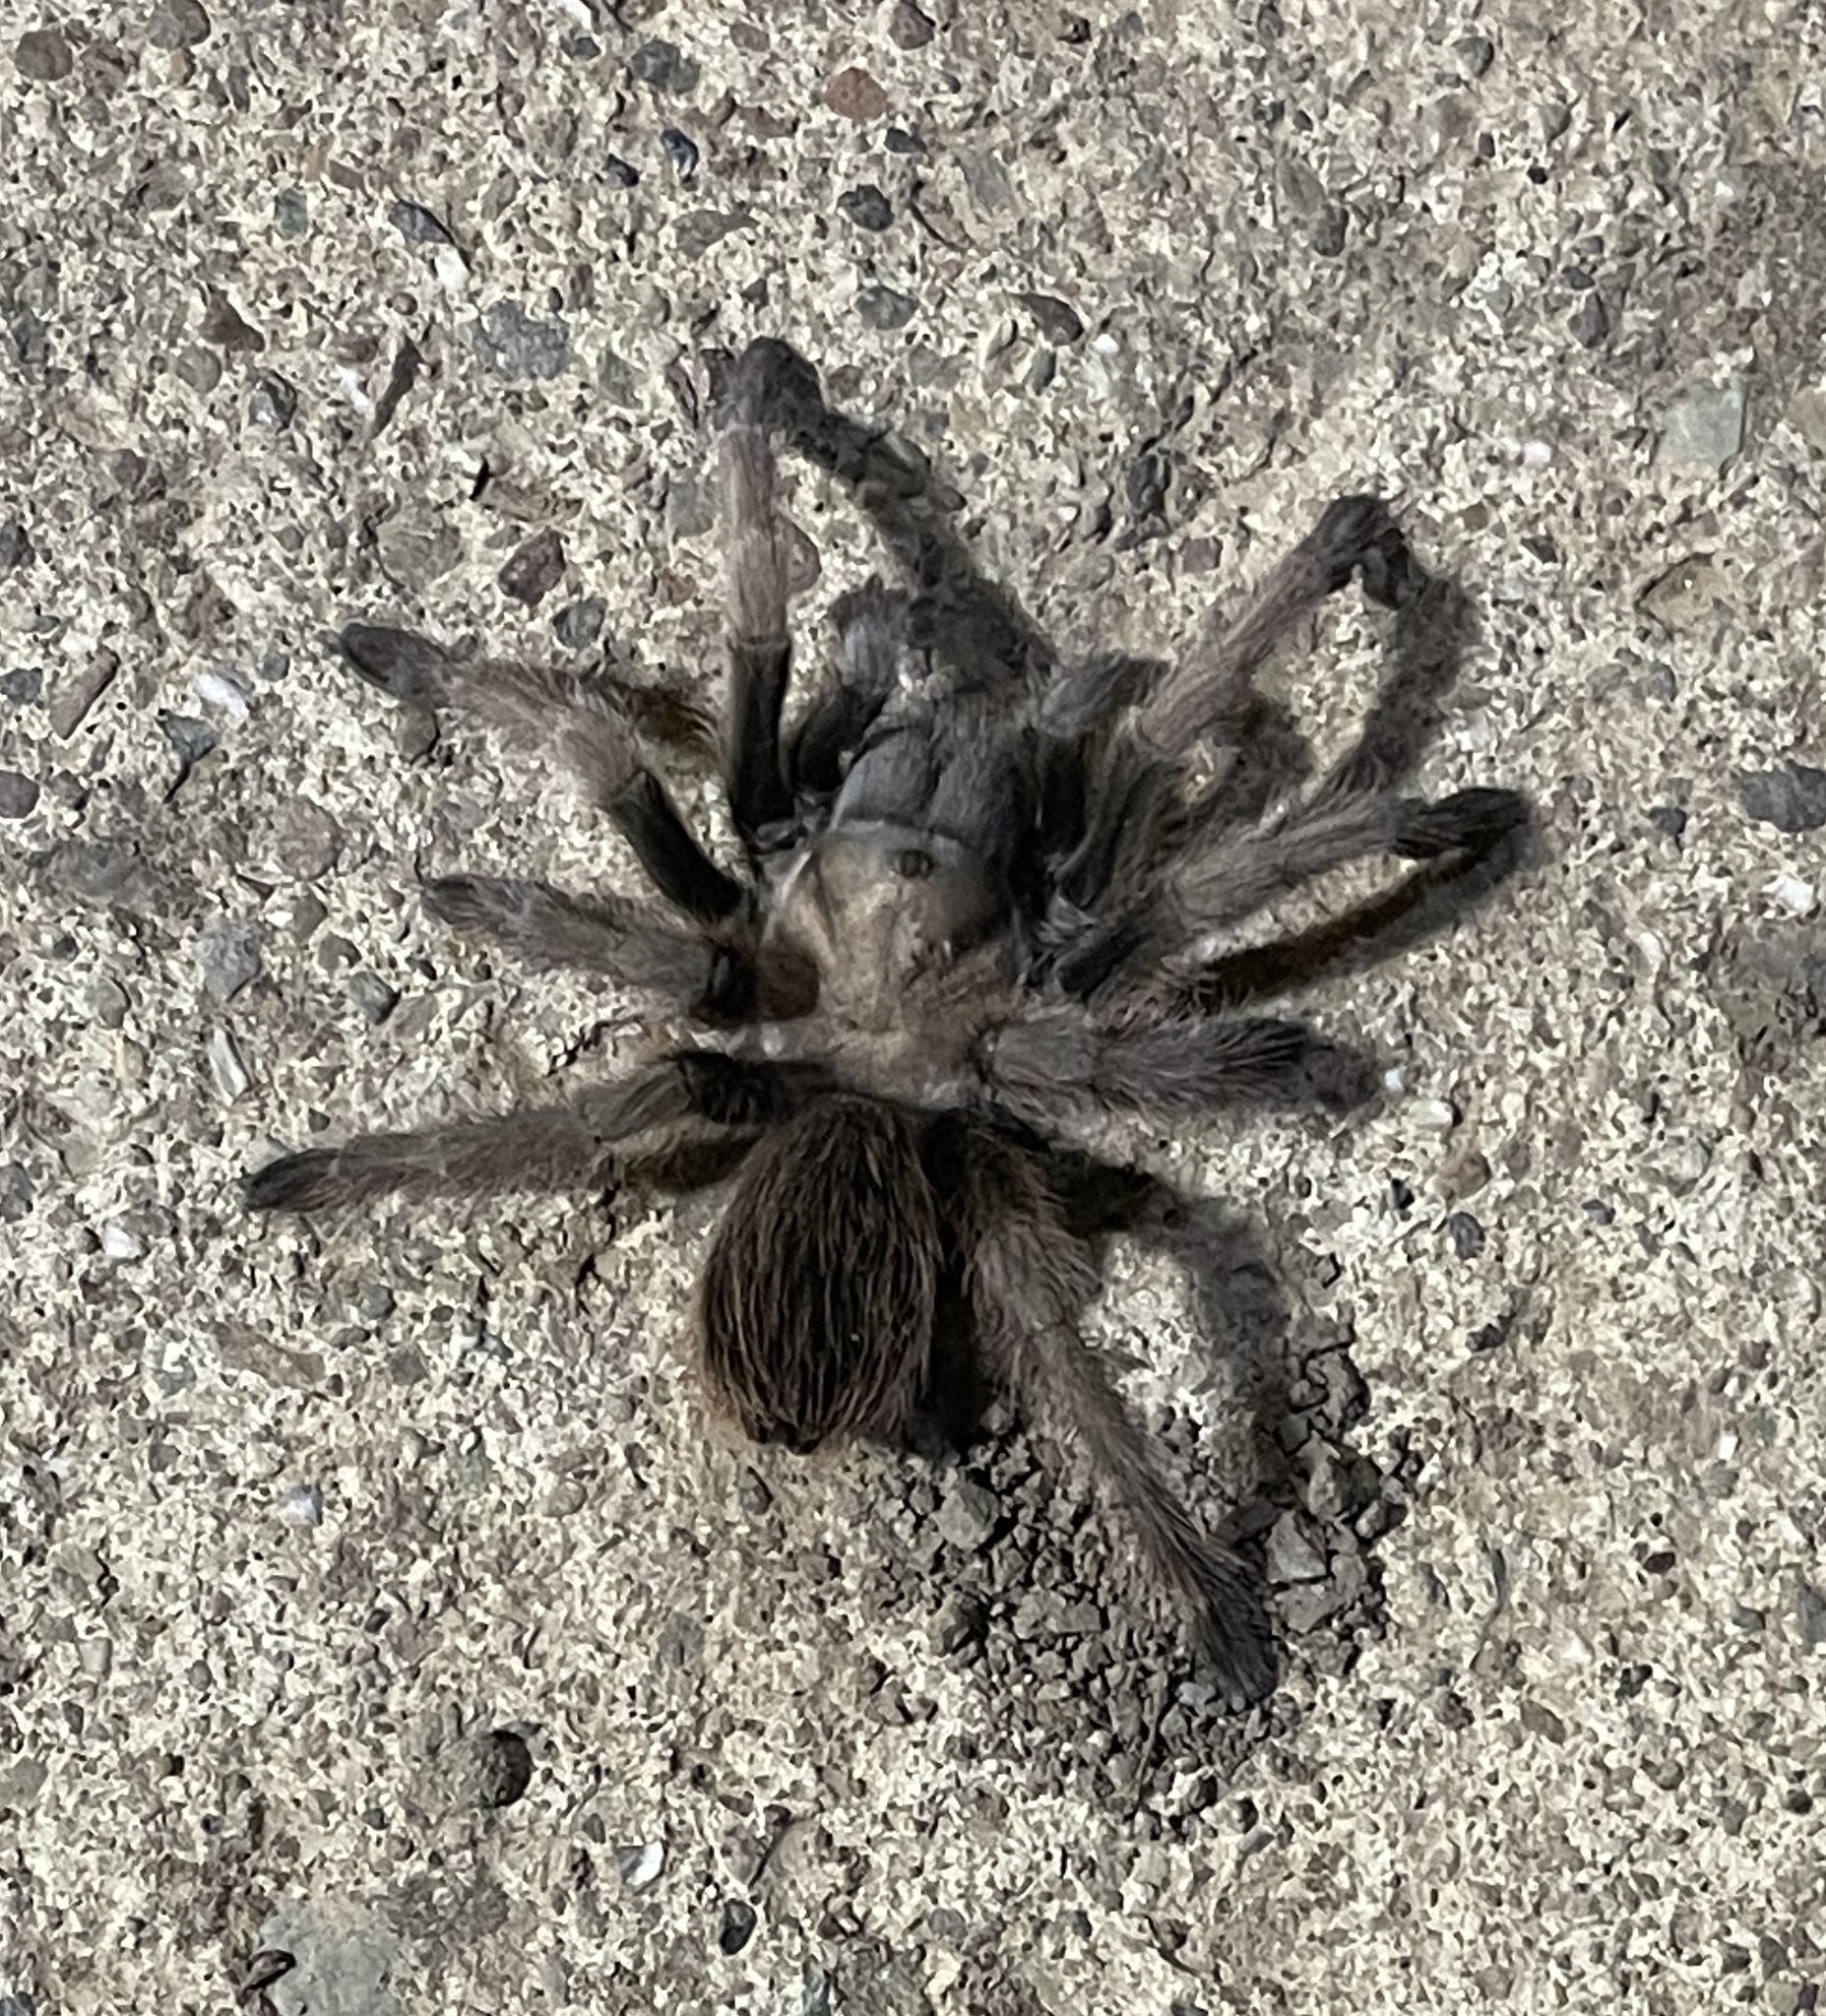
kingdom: Animalia
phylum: Arthropoda
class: Arachnida
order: Araneae
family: Theraphosidae
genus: Aphonopelma
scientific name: Aphonopelma iodius
